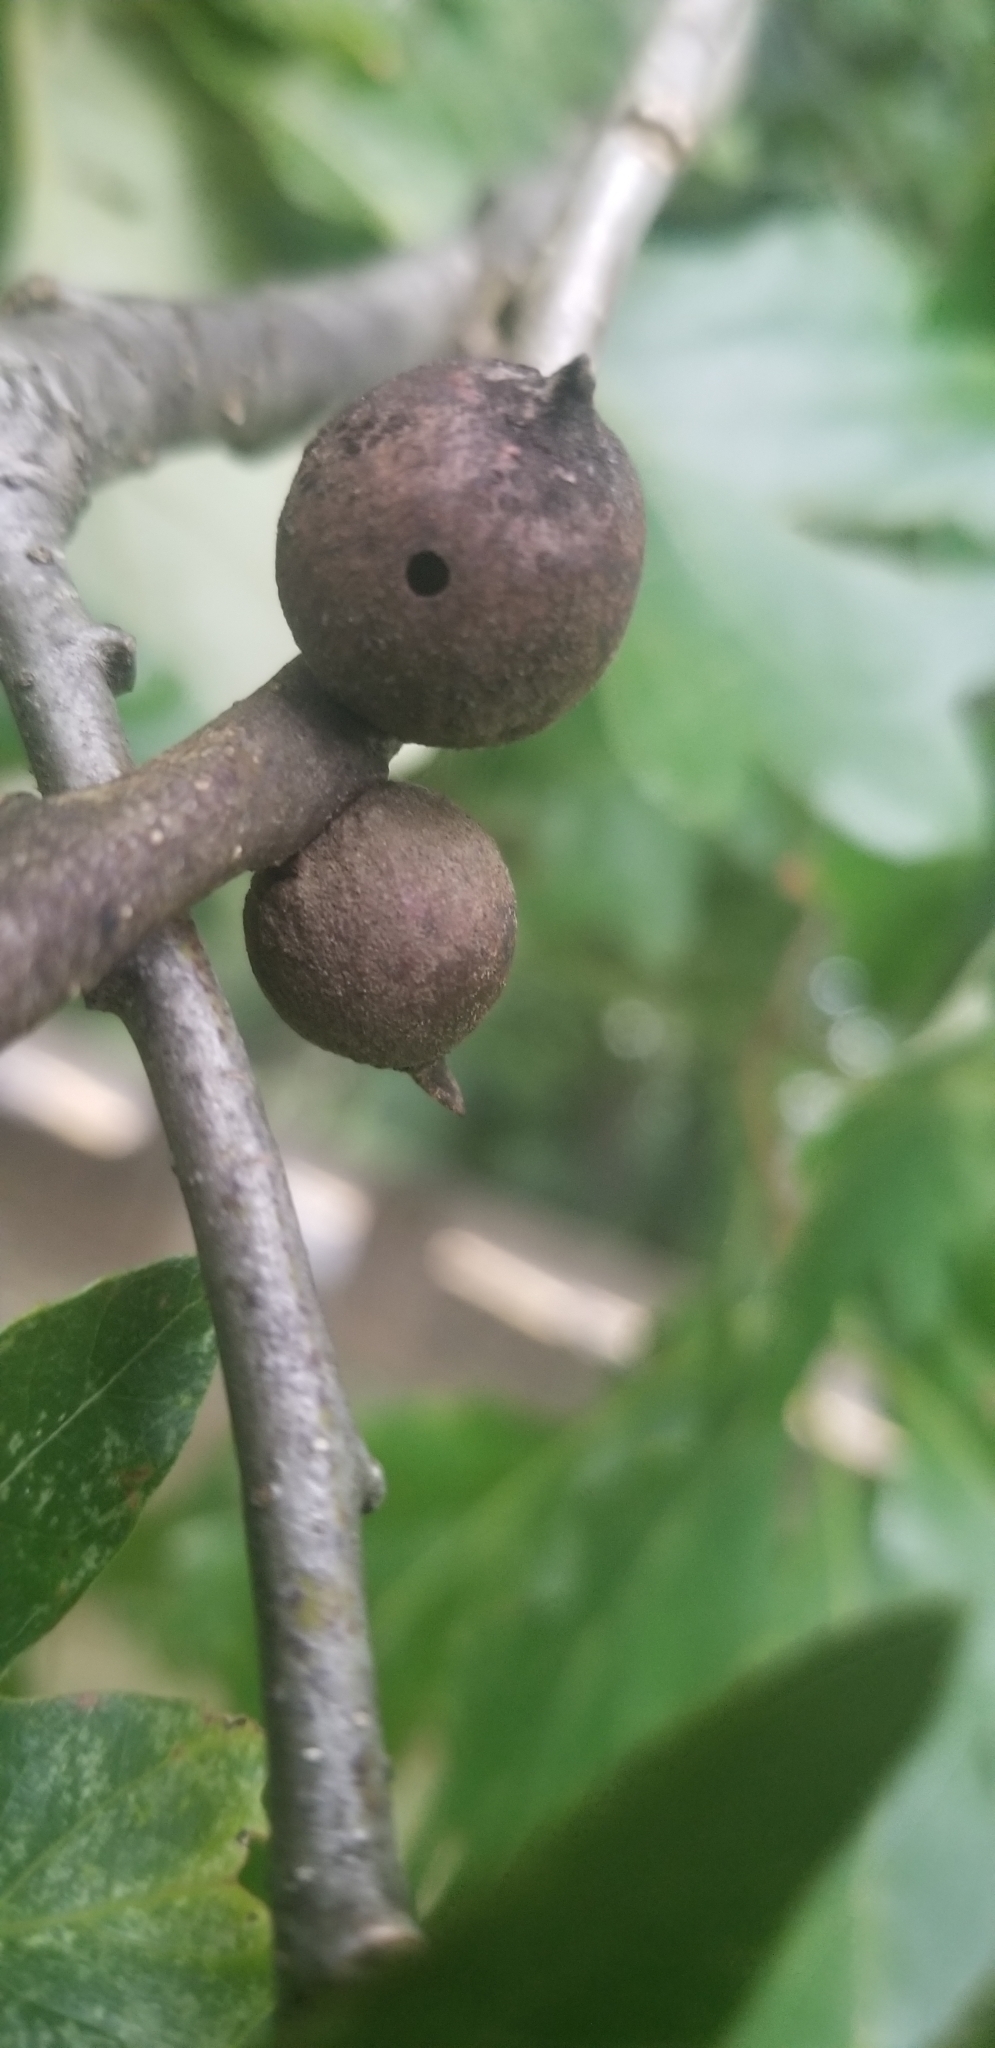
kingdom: Animalia
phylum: Arthropoda
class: Insecta
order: Hymenoptera
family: Cynipidae
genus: Disholcaspis
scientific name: Disholcaspis
